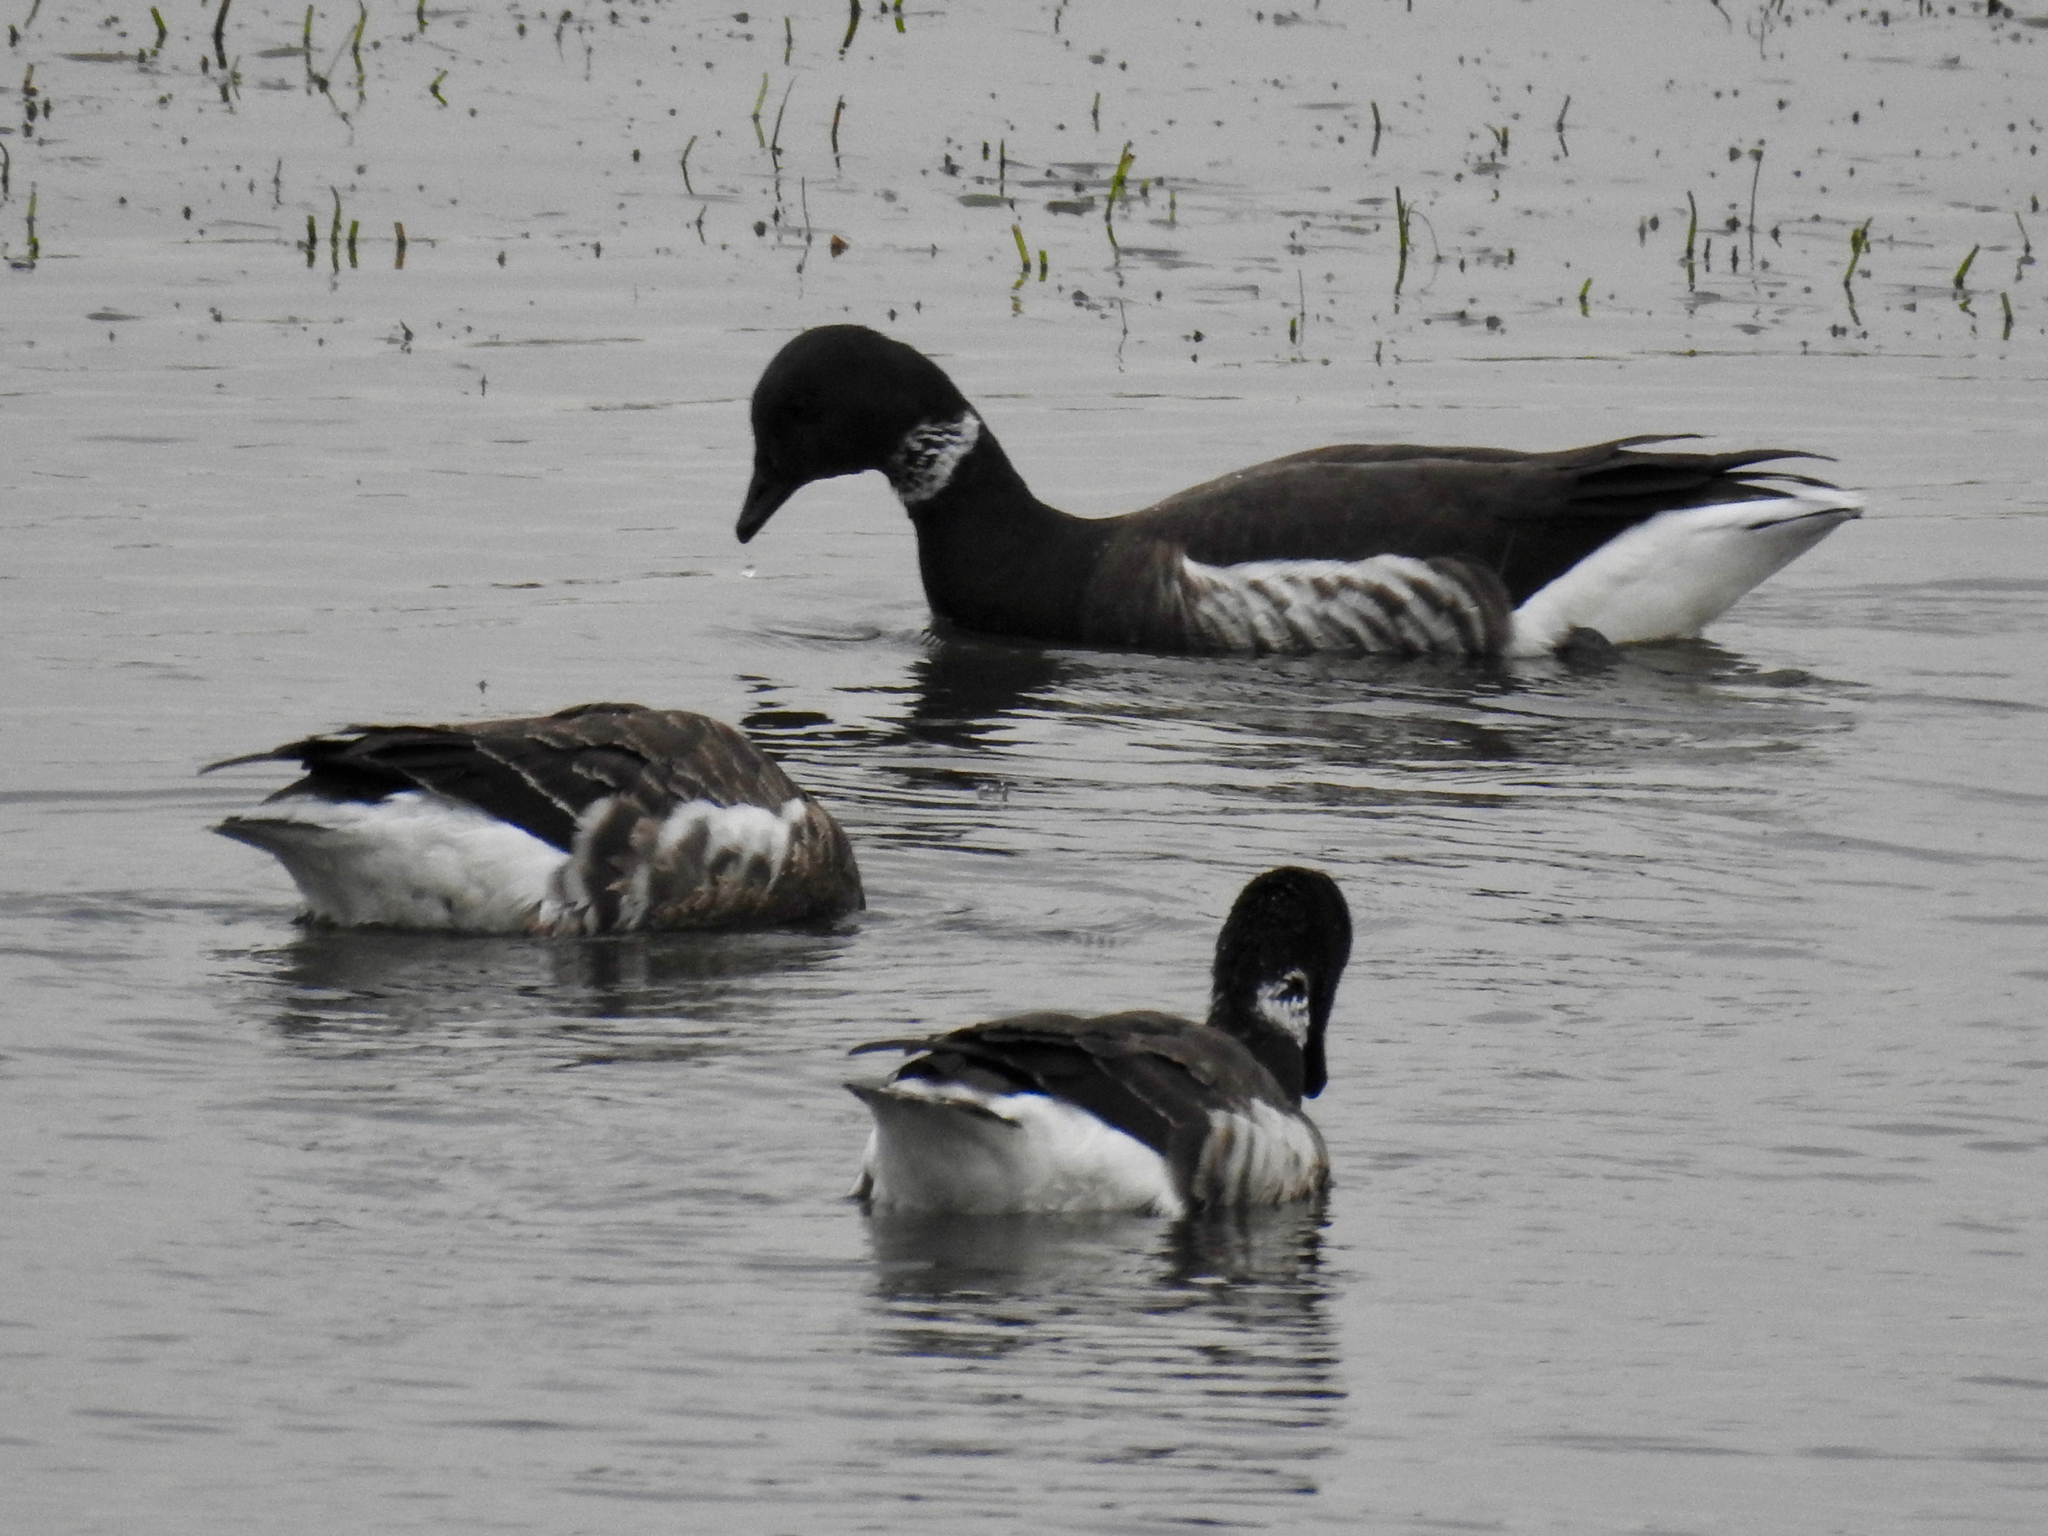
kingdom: Animalia
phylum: Chordata
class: Aves
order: Anseriformes
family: Anatidae
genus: Branta
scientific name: Branta bernicla
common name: Brant goose
